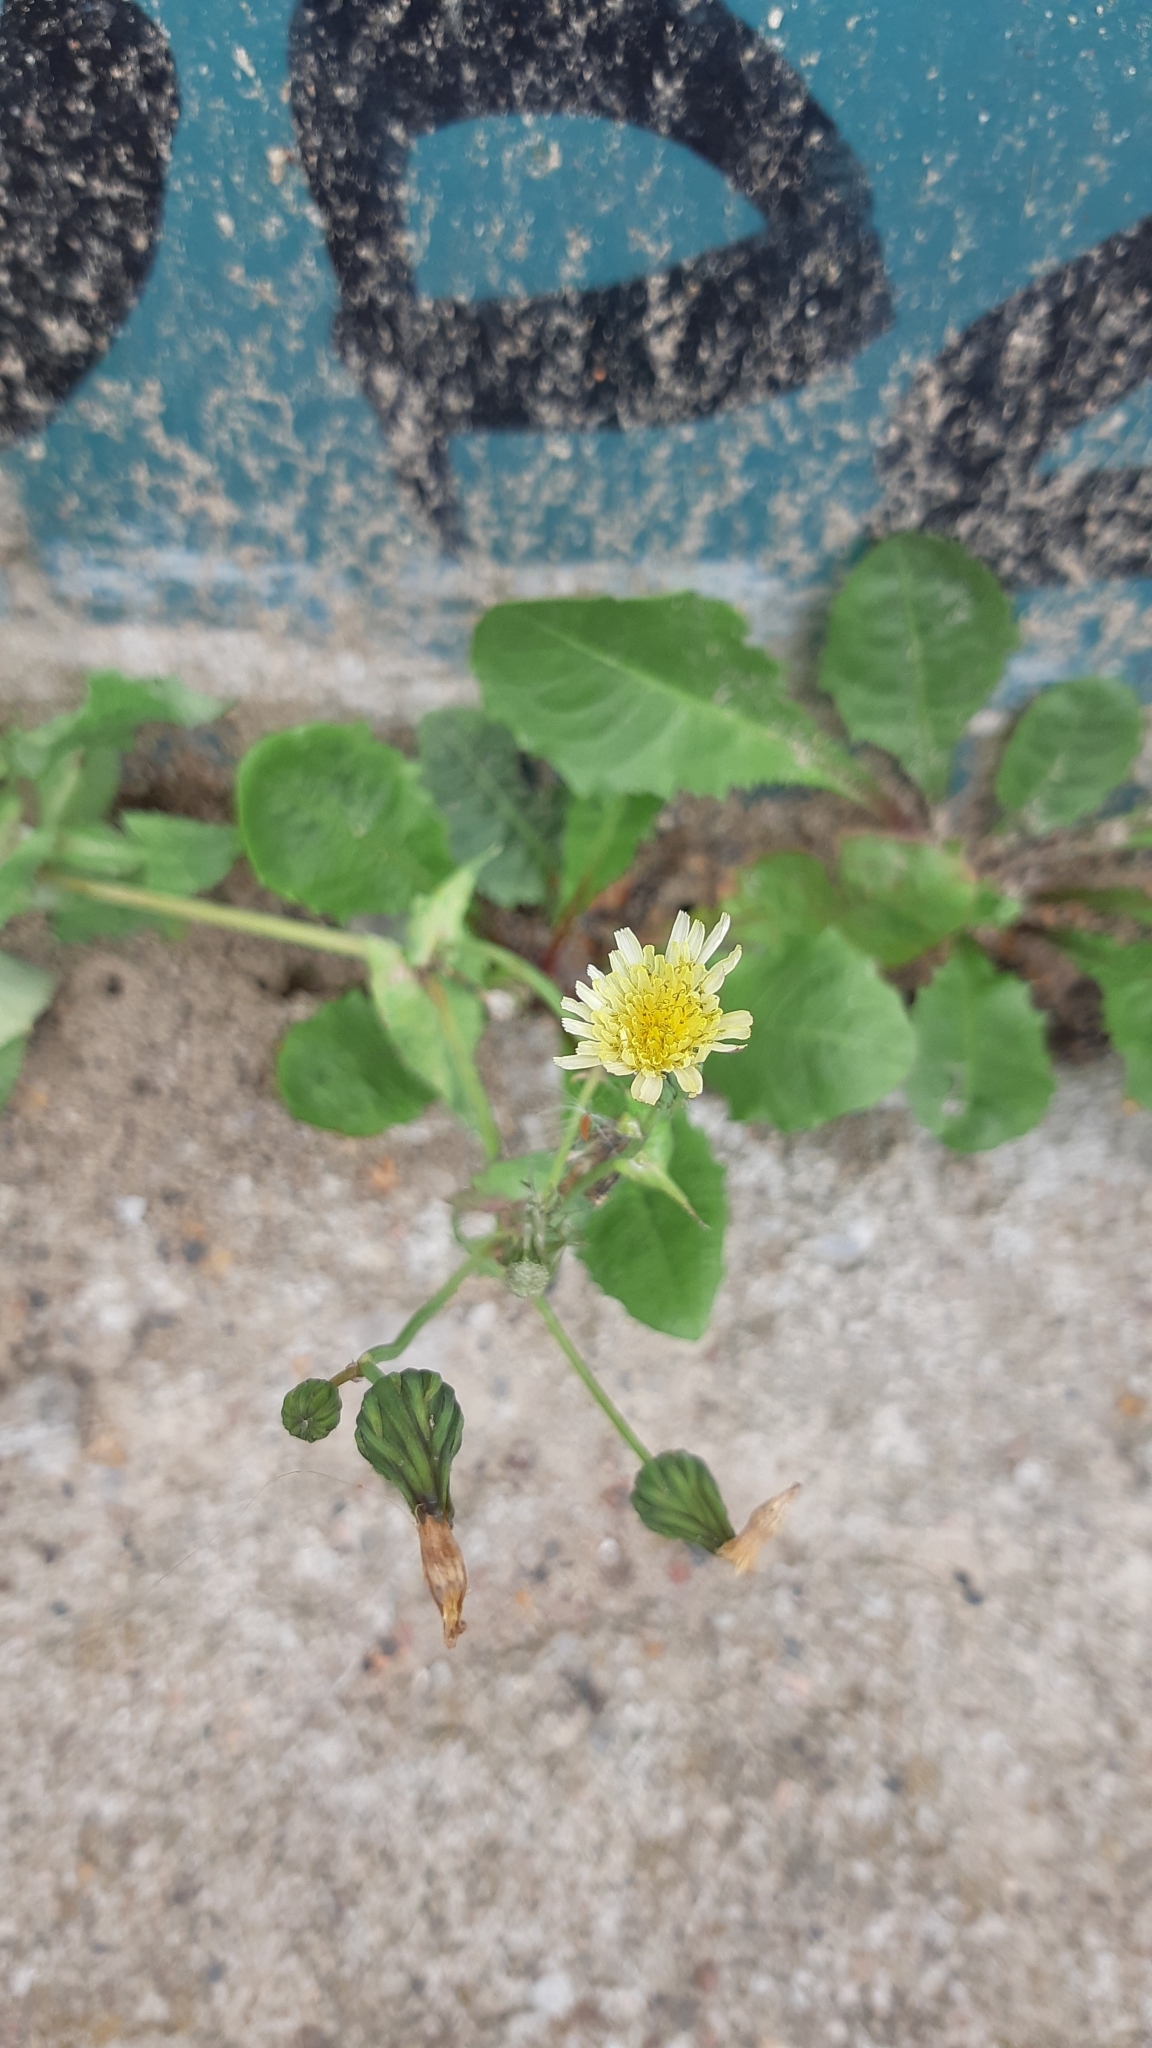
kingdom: Plantae
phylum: Tracheophyta
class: Magnoliopsida
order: Asterales
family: Asteraceae
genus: Sonchus
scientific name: Sonchus oleraceus
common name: Common sowthistle
